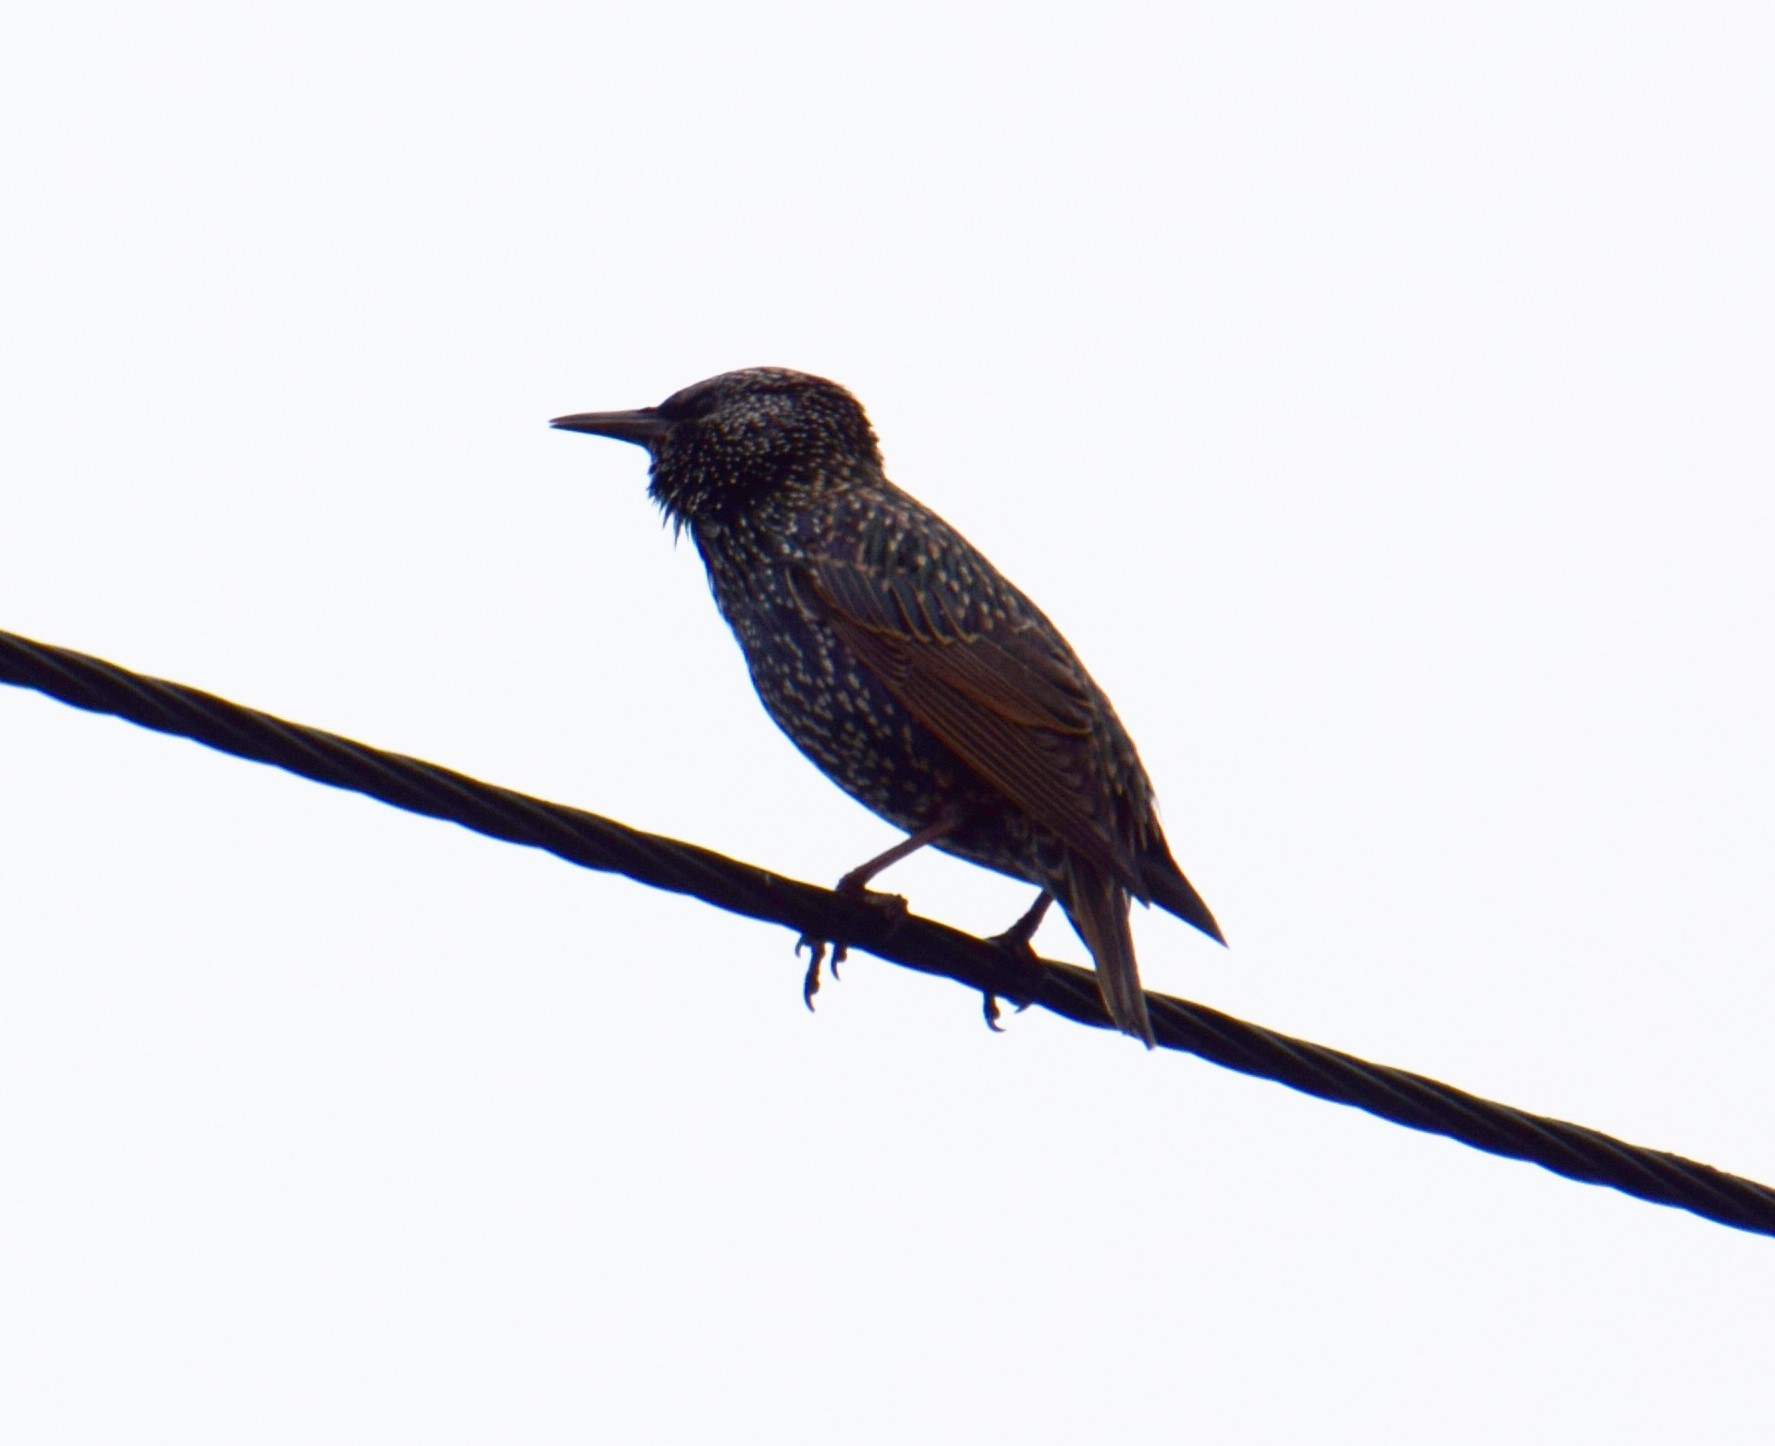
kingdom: Animalia
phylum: Chordata
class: Aves
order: Passeriformes
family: Sturnidae
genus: Sturnus
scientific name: Sturnus vulgaris
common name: Common starling
